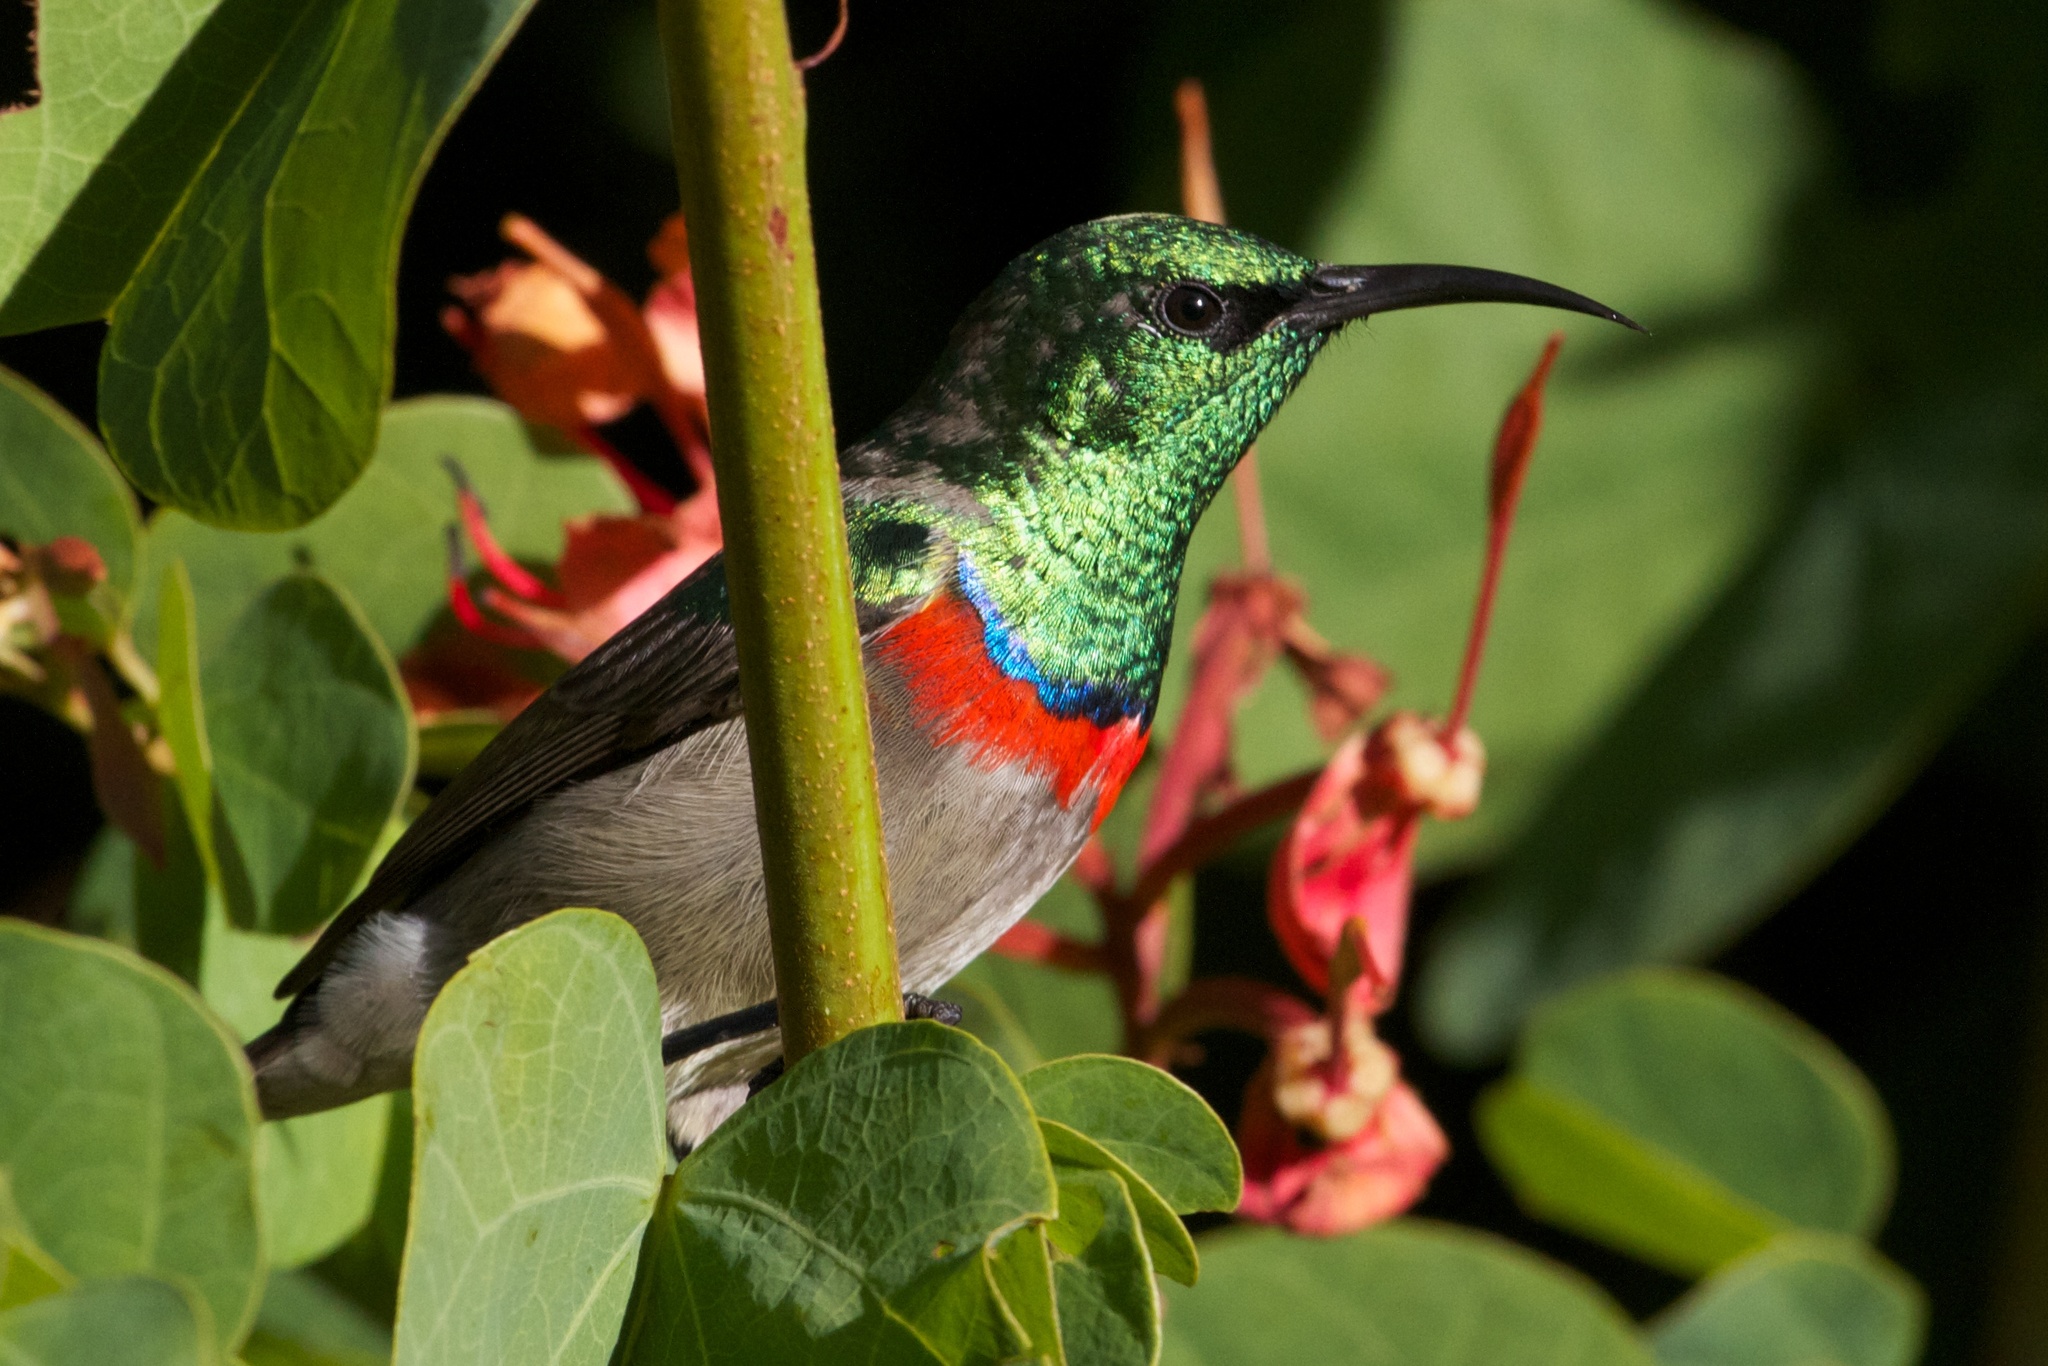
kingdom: Animalia
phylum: Chordata
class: Aves
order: Passeriformes
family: Nectariniidae
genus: Cinnyris
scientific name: Cinnyris chalybeus
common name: Southern double-collared sunbird
